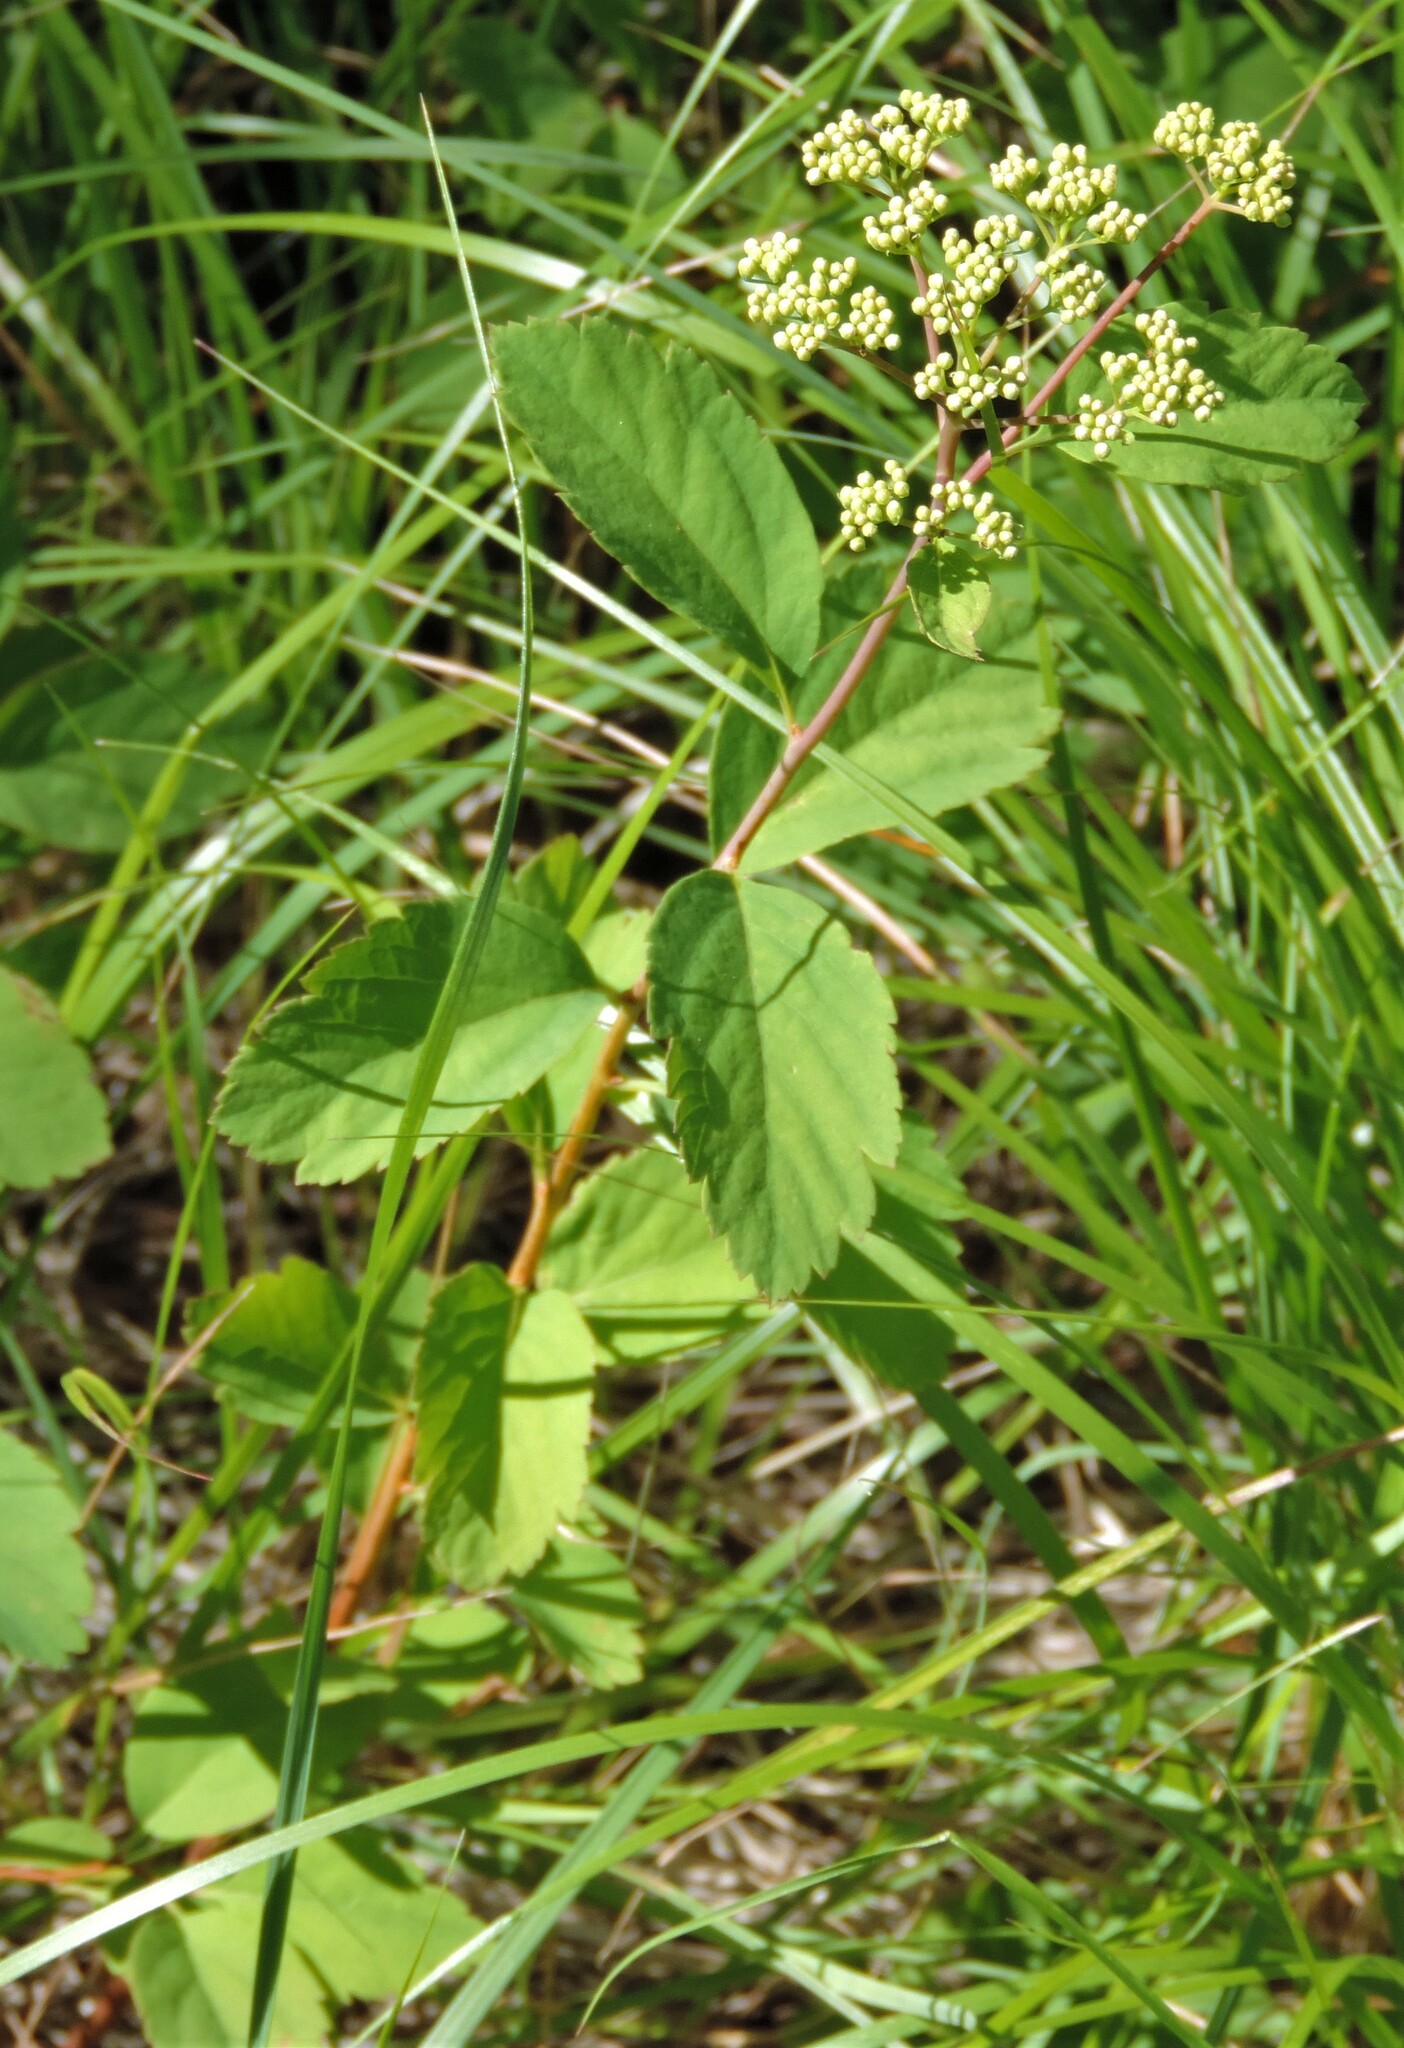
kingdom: Plantae
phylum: Tracheophyta
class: Magnoliopsida
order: Rosales
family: Rosaceae
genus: Spiraea
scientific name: Spiraea lucida
